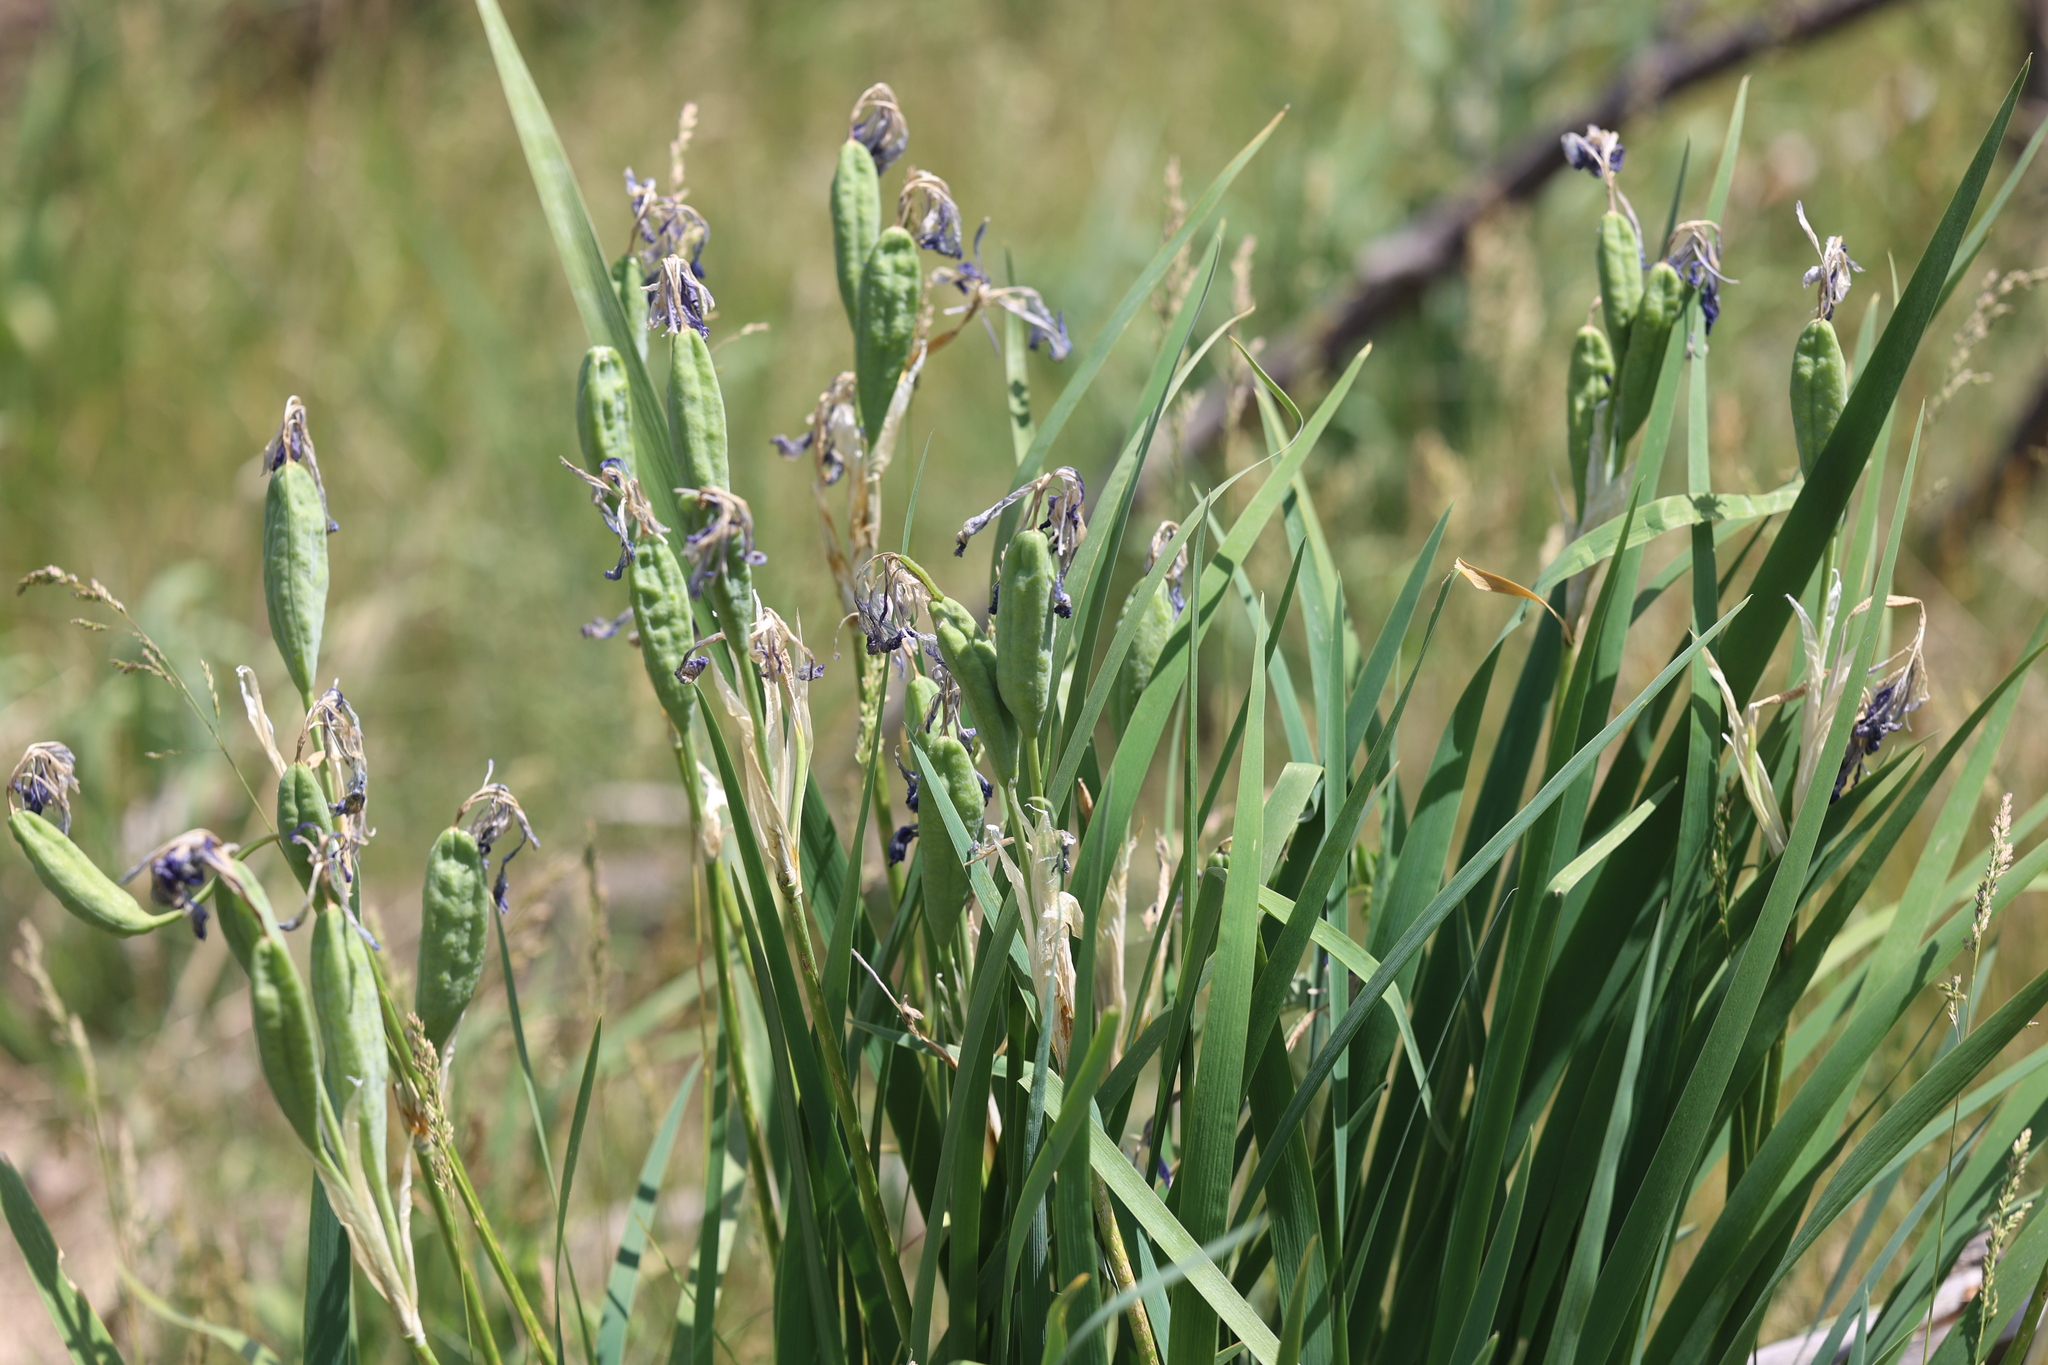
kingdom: Plantae
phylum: Tracheophyta
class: Liliopsida
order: Asparagales
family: Iridaceae
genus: Iris
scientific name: Iris missouriensis
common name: Rocky mountain iris
